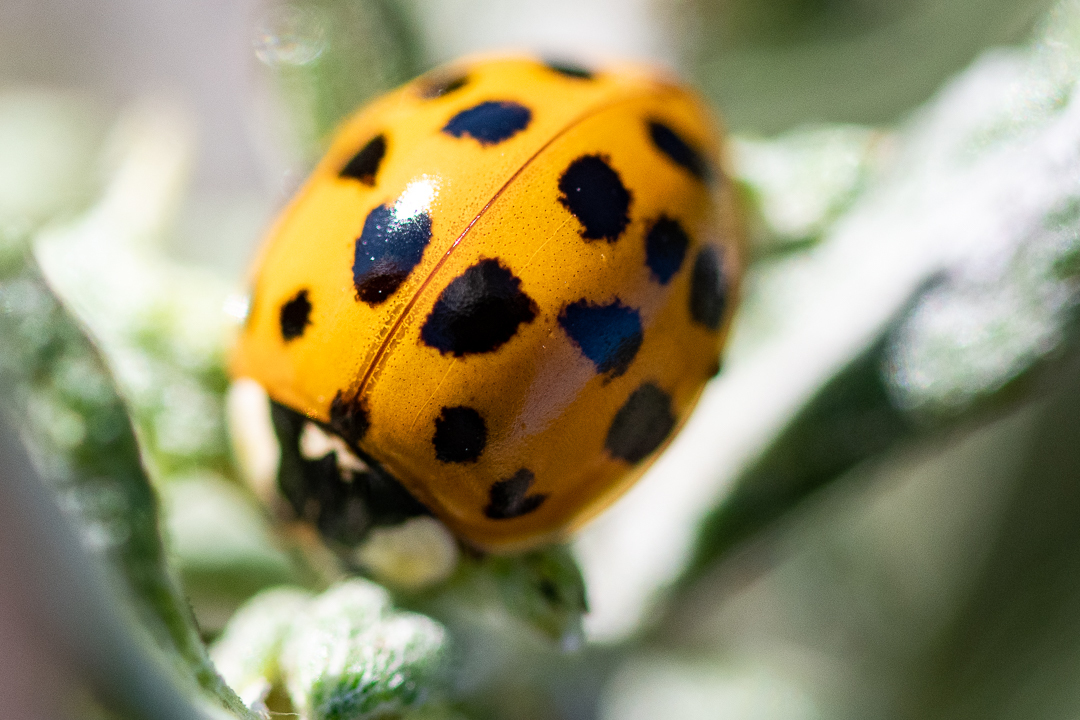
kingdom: Animalia
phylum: Arthropoda
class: Insecta
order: Coleoptera
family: Coccinellidae
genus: Harmonia
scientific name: Harmonia axyridis
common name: Harlequin ladybird
